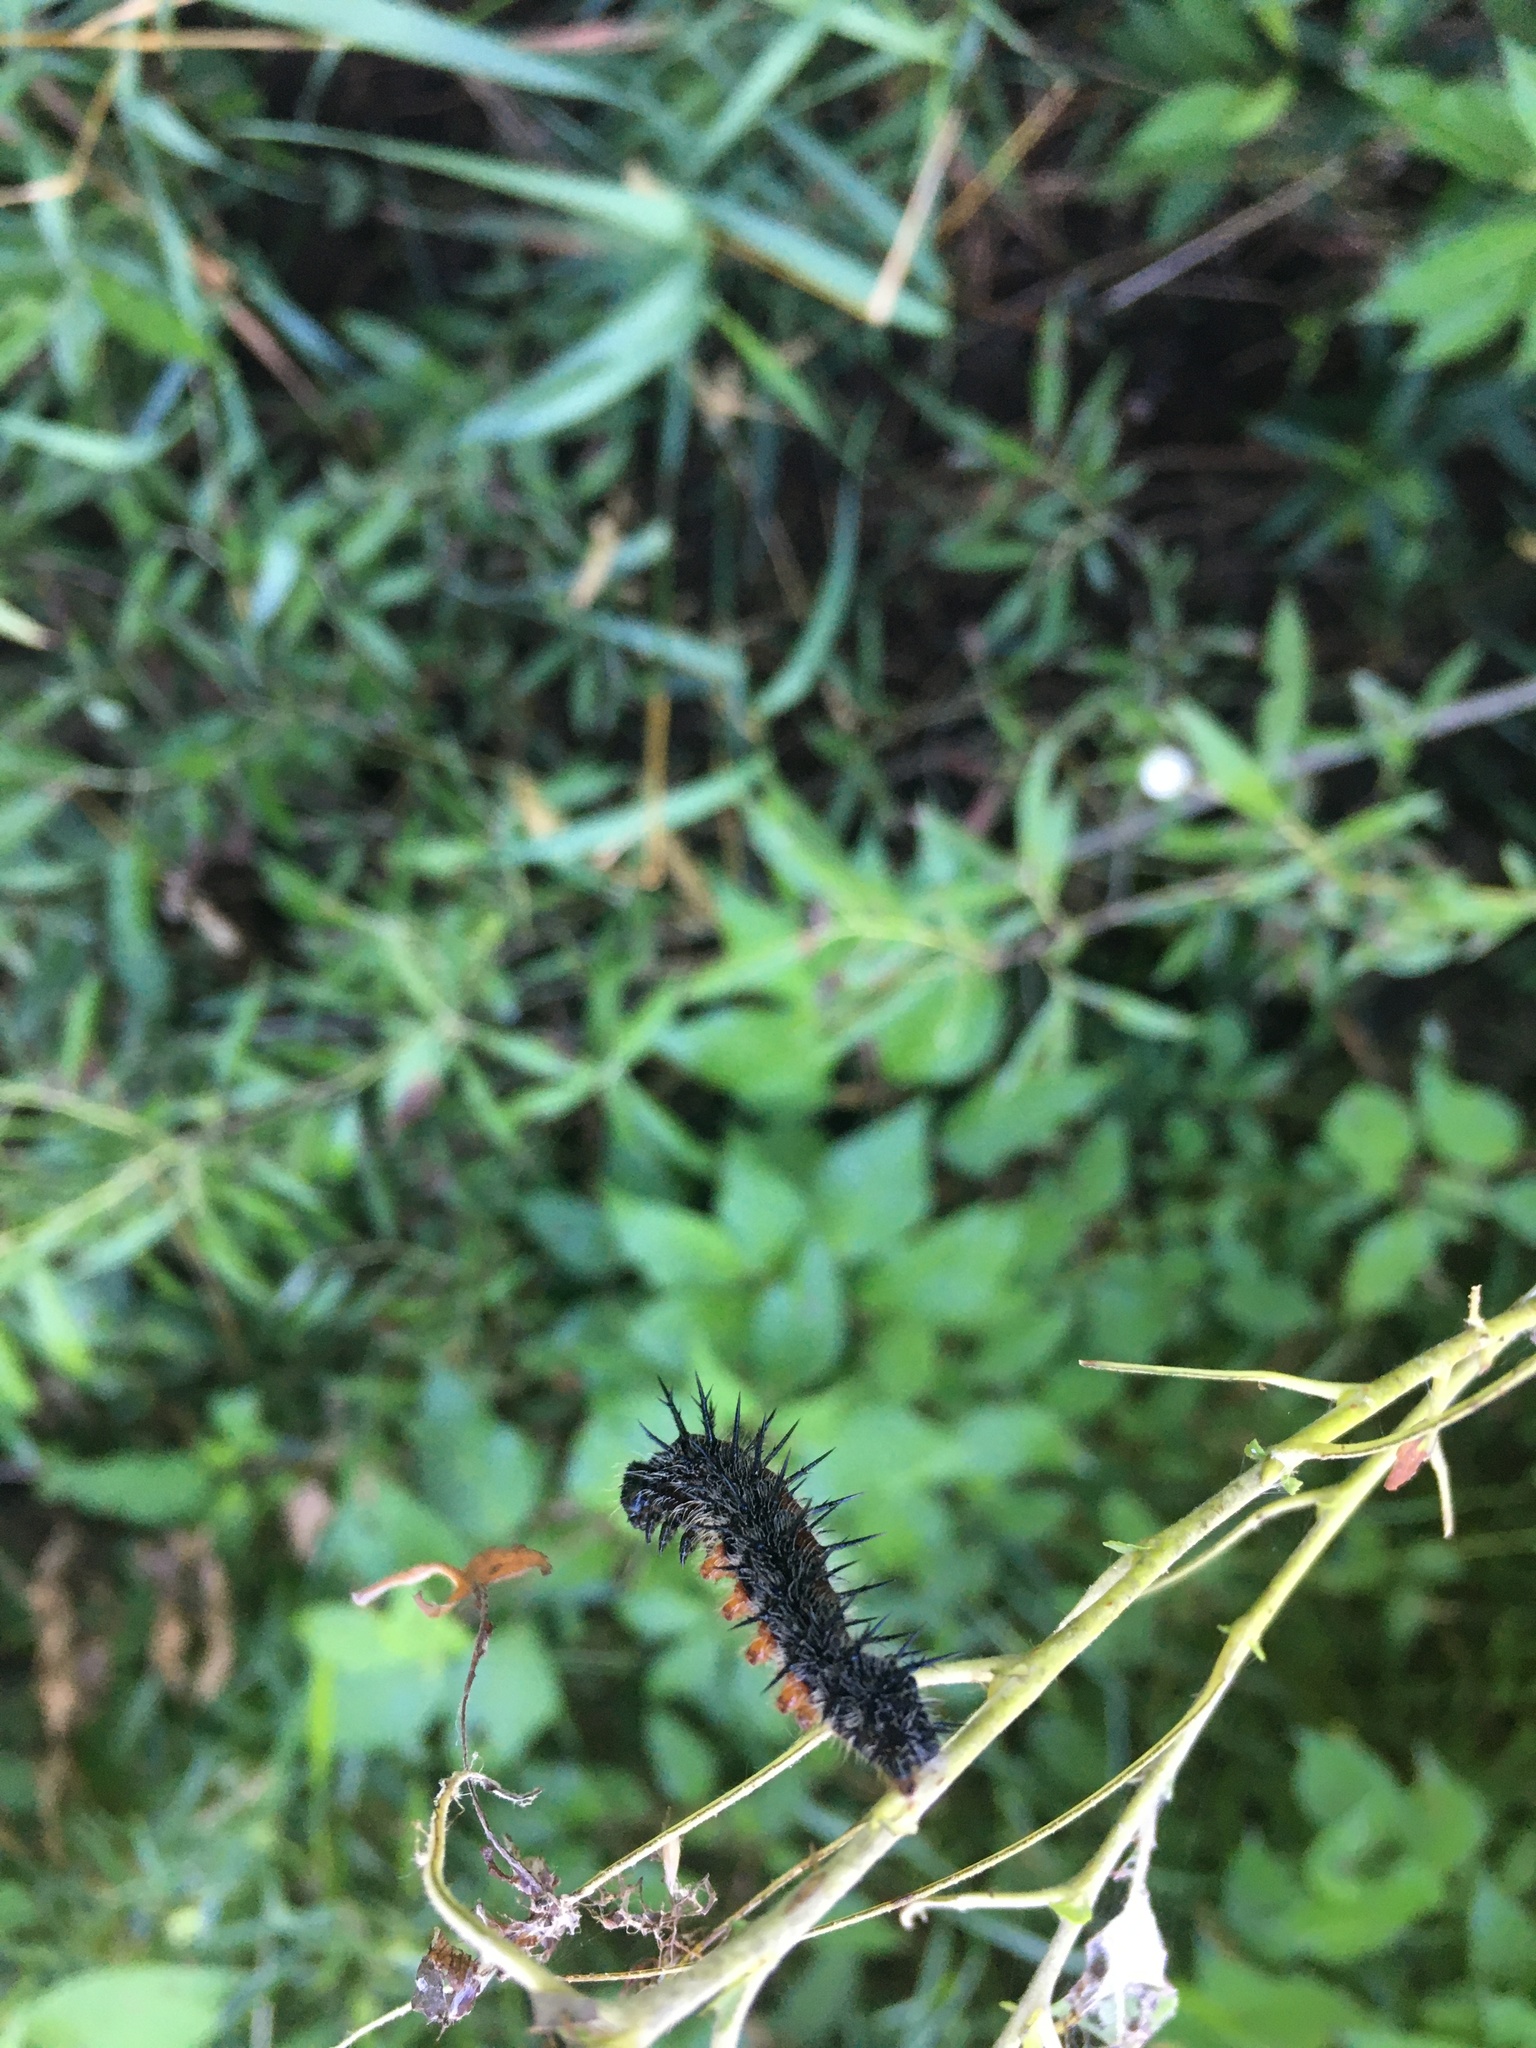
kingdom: Animalia
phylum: Arthropoda
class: Insecta
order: Lepidoptera
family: Nymphalidae
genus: Nymphalis
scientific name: Nymphalis antiopa
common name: Camberwell beauty
